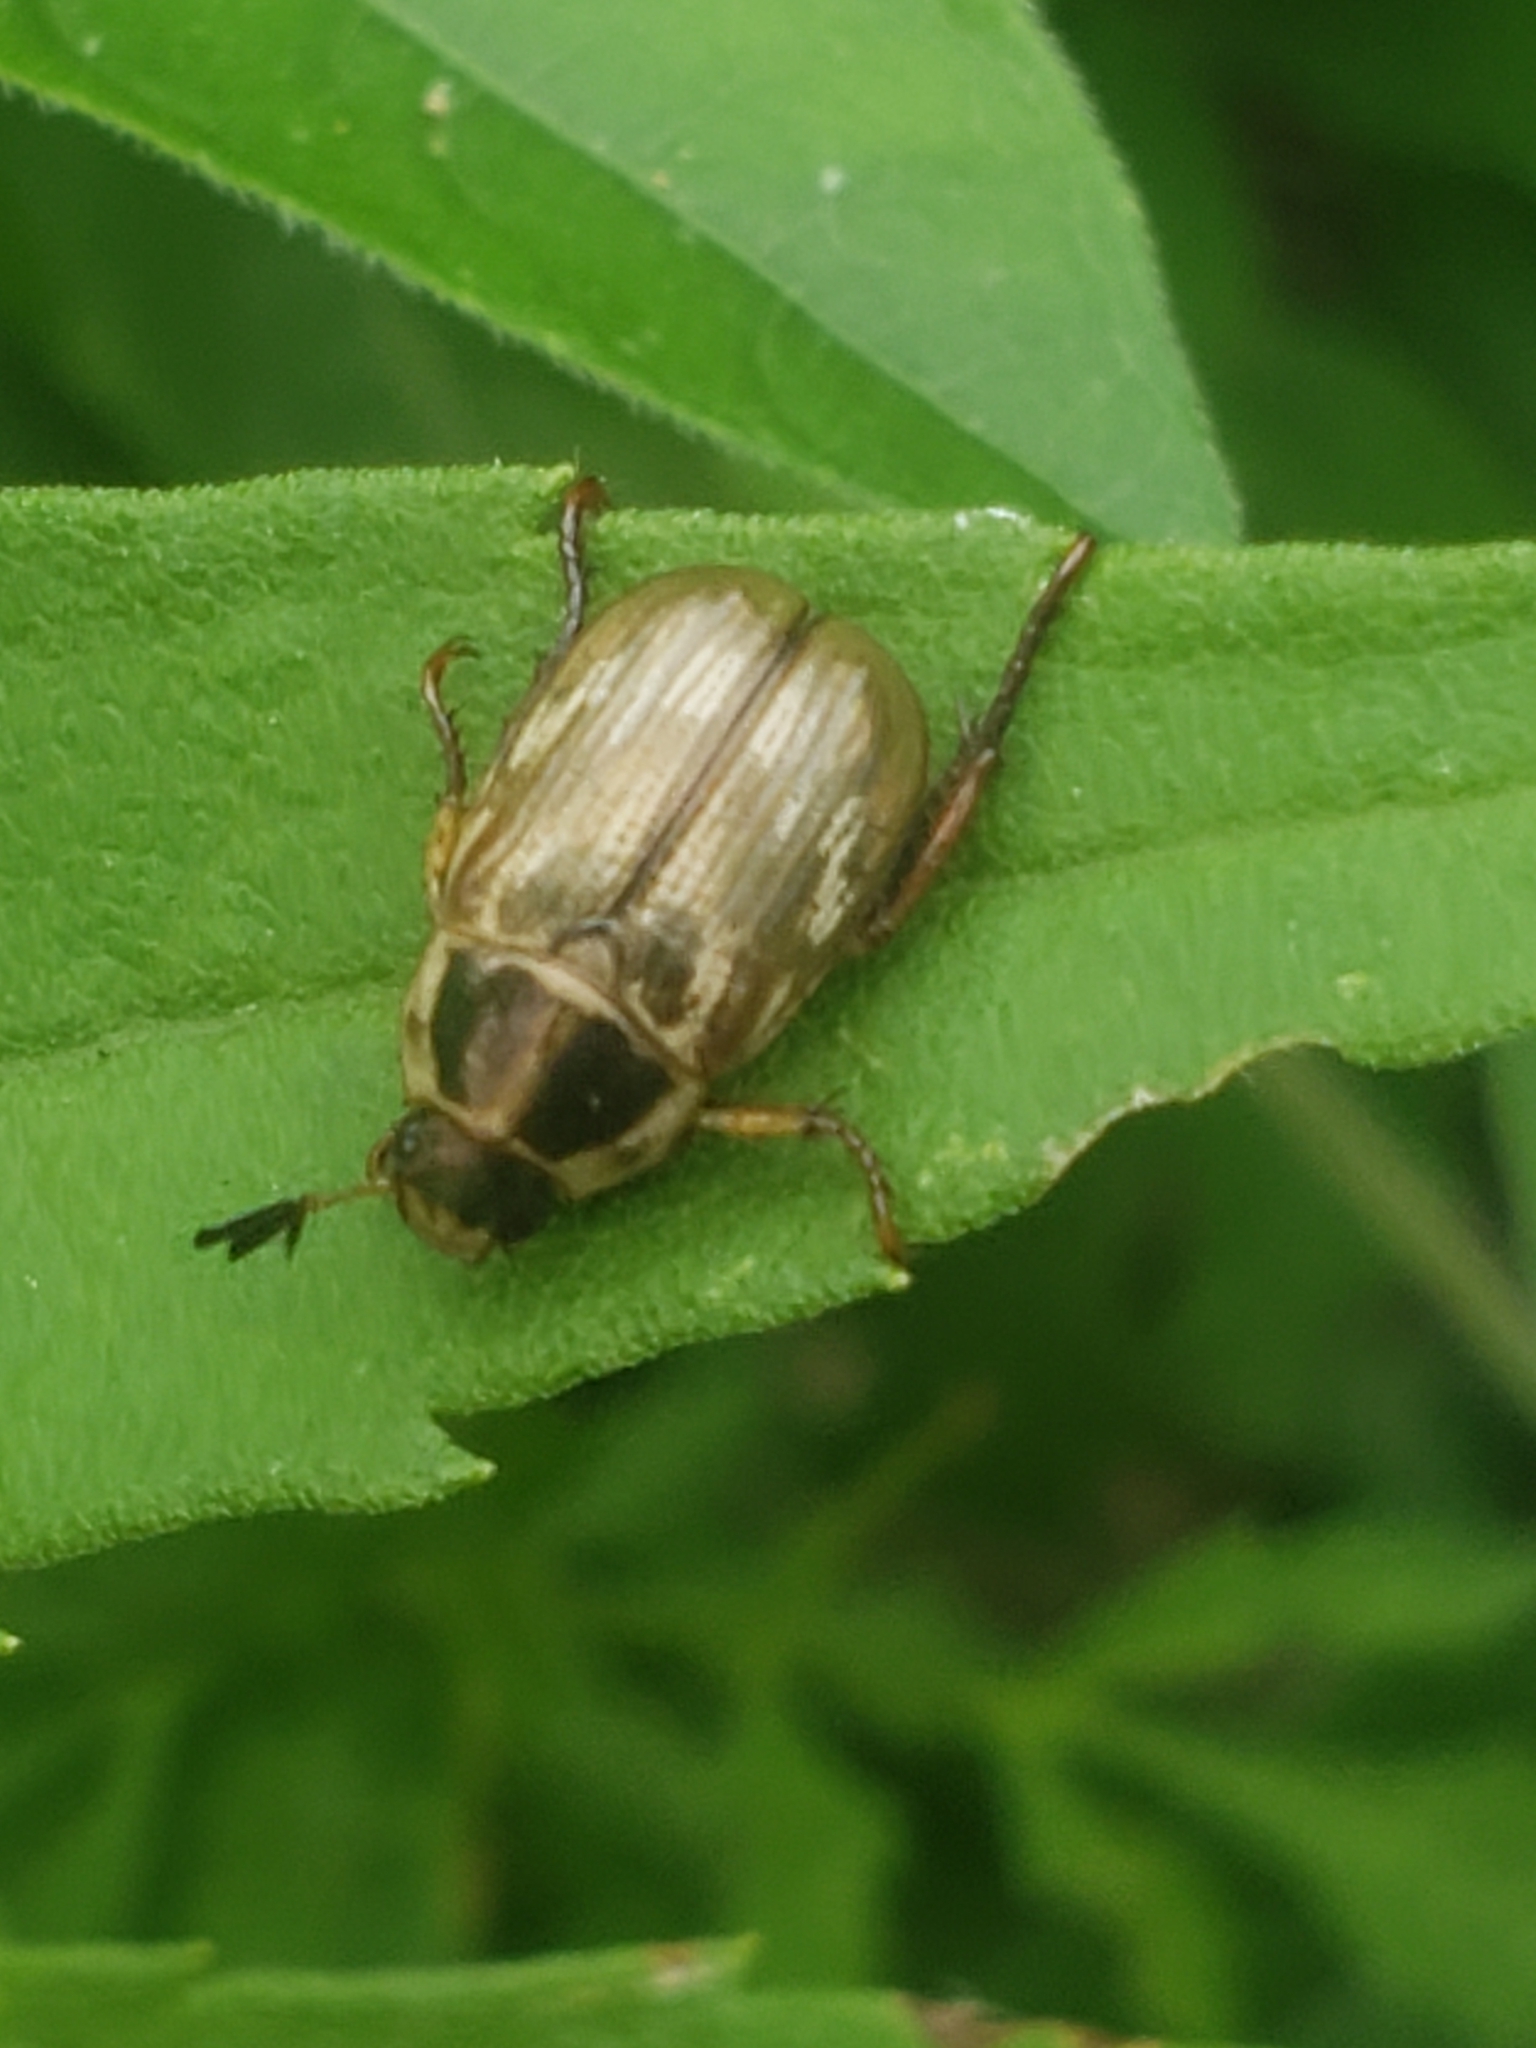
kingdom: Animalia
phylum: Arthropoda
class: Insecta
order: Coleoptera
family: Scarabaeidae
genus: Exomala
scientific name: Exomala orientalis
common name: Oriental beetle
